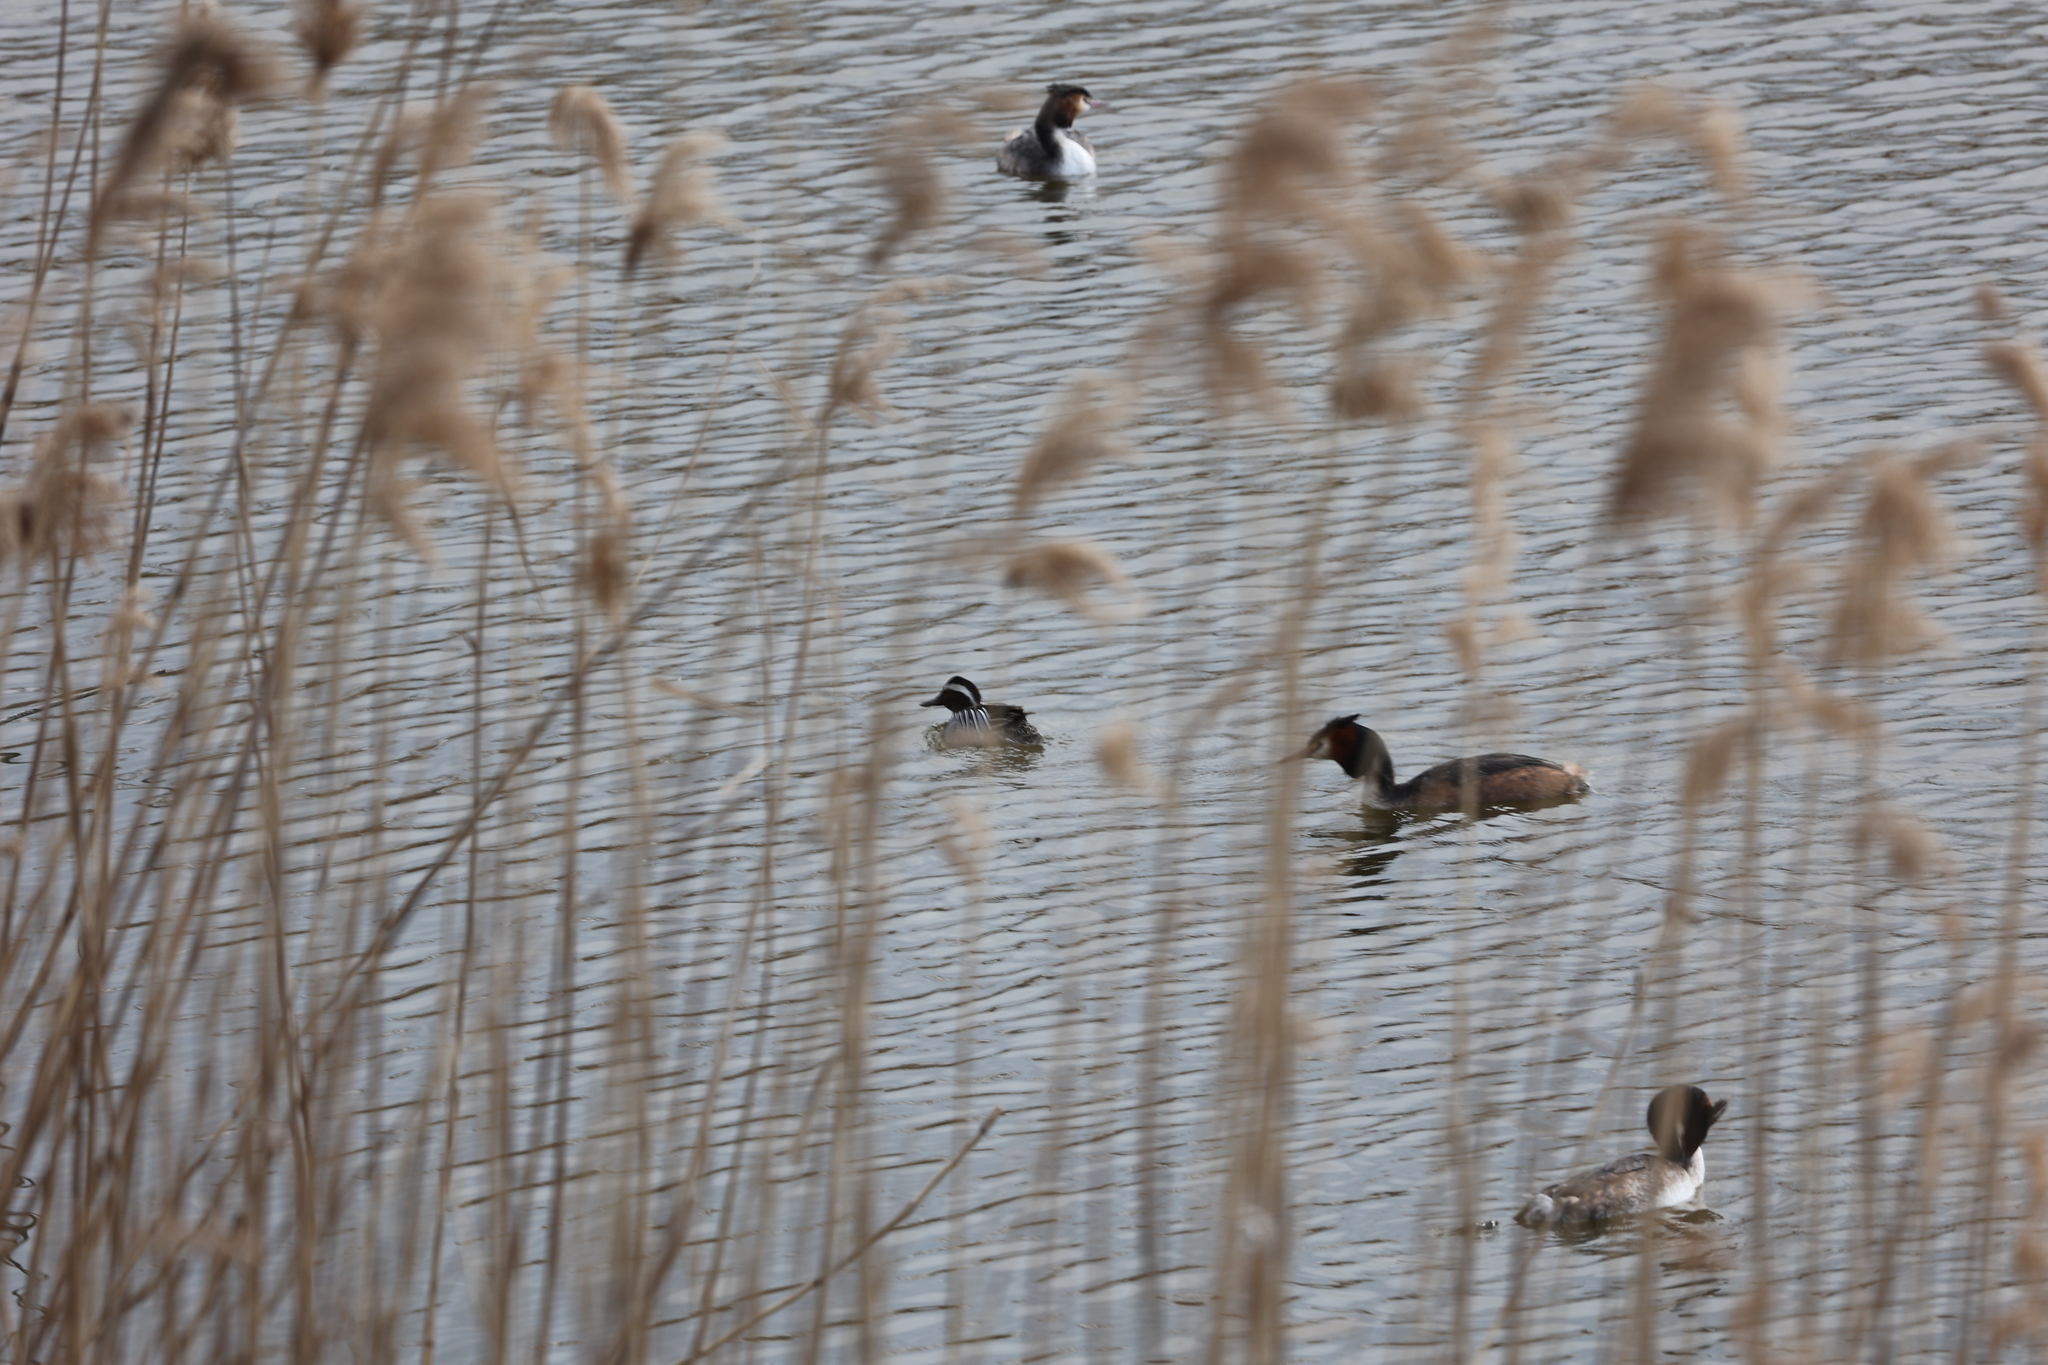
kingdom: Animalia
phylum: Chordata
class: Aves
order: Anseriformes
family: Anatidae
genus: Spatula
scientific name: Spatula querquedula
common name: Garganey
